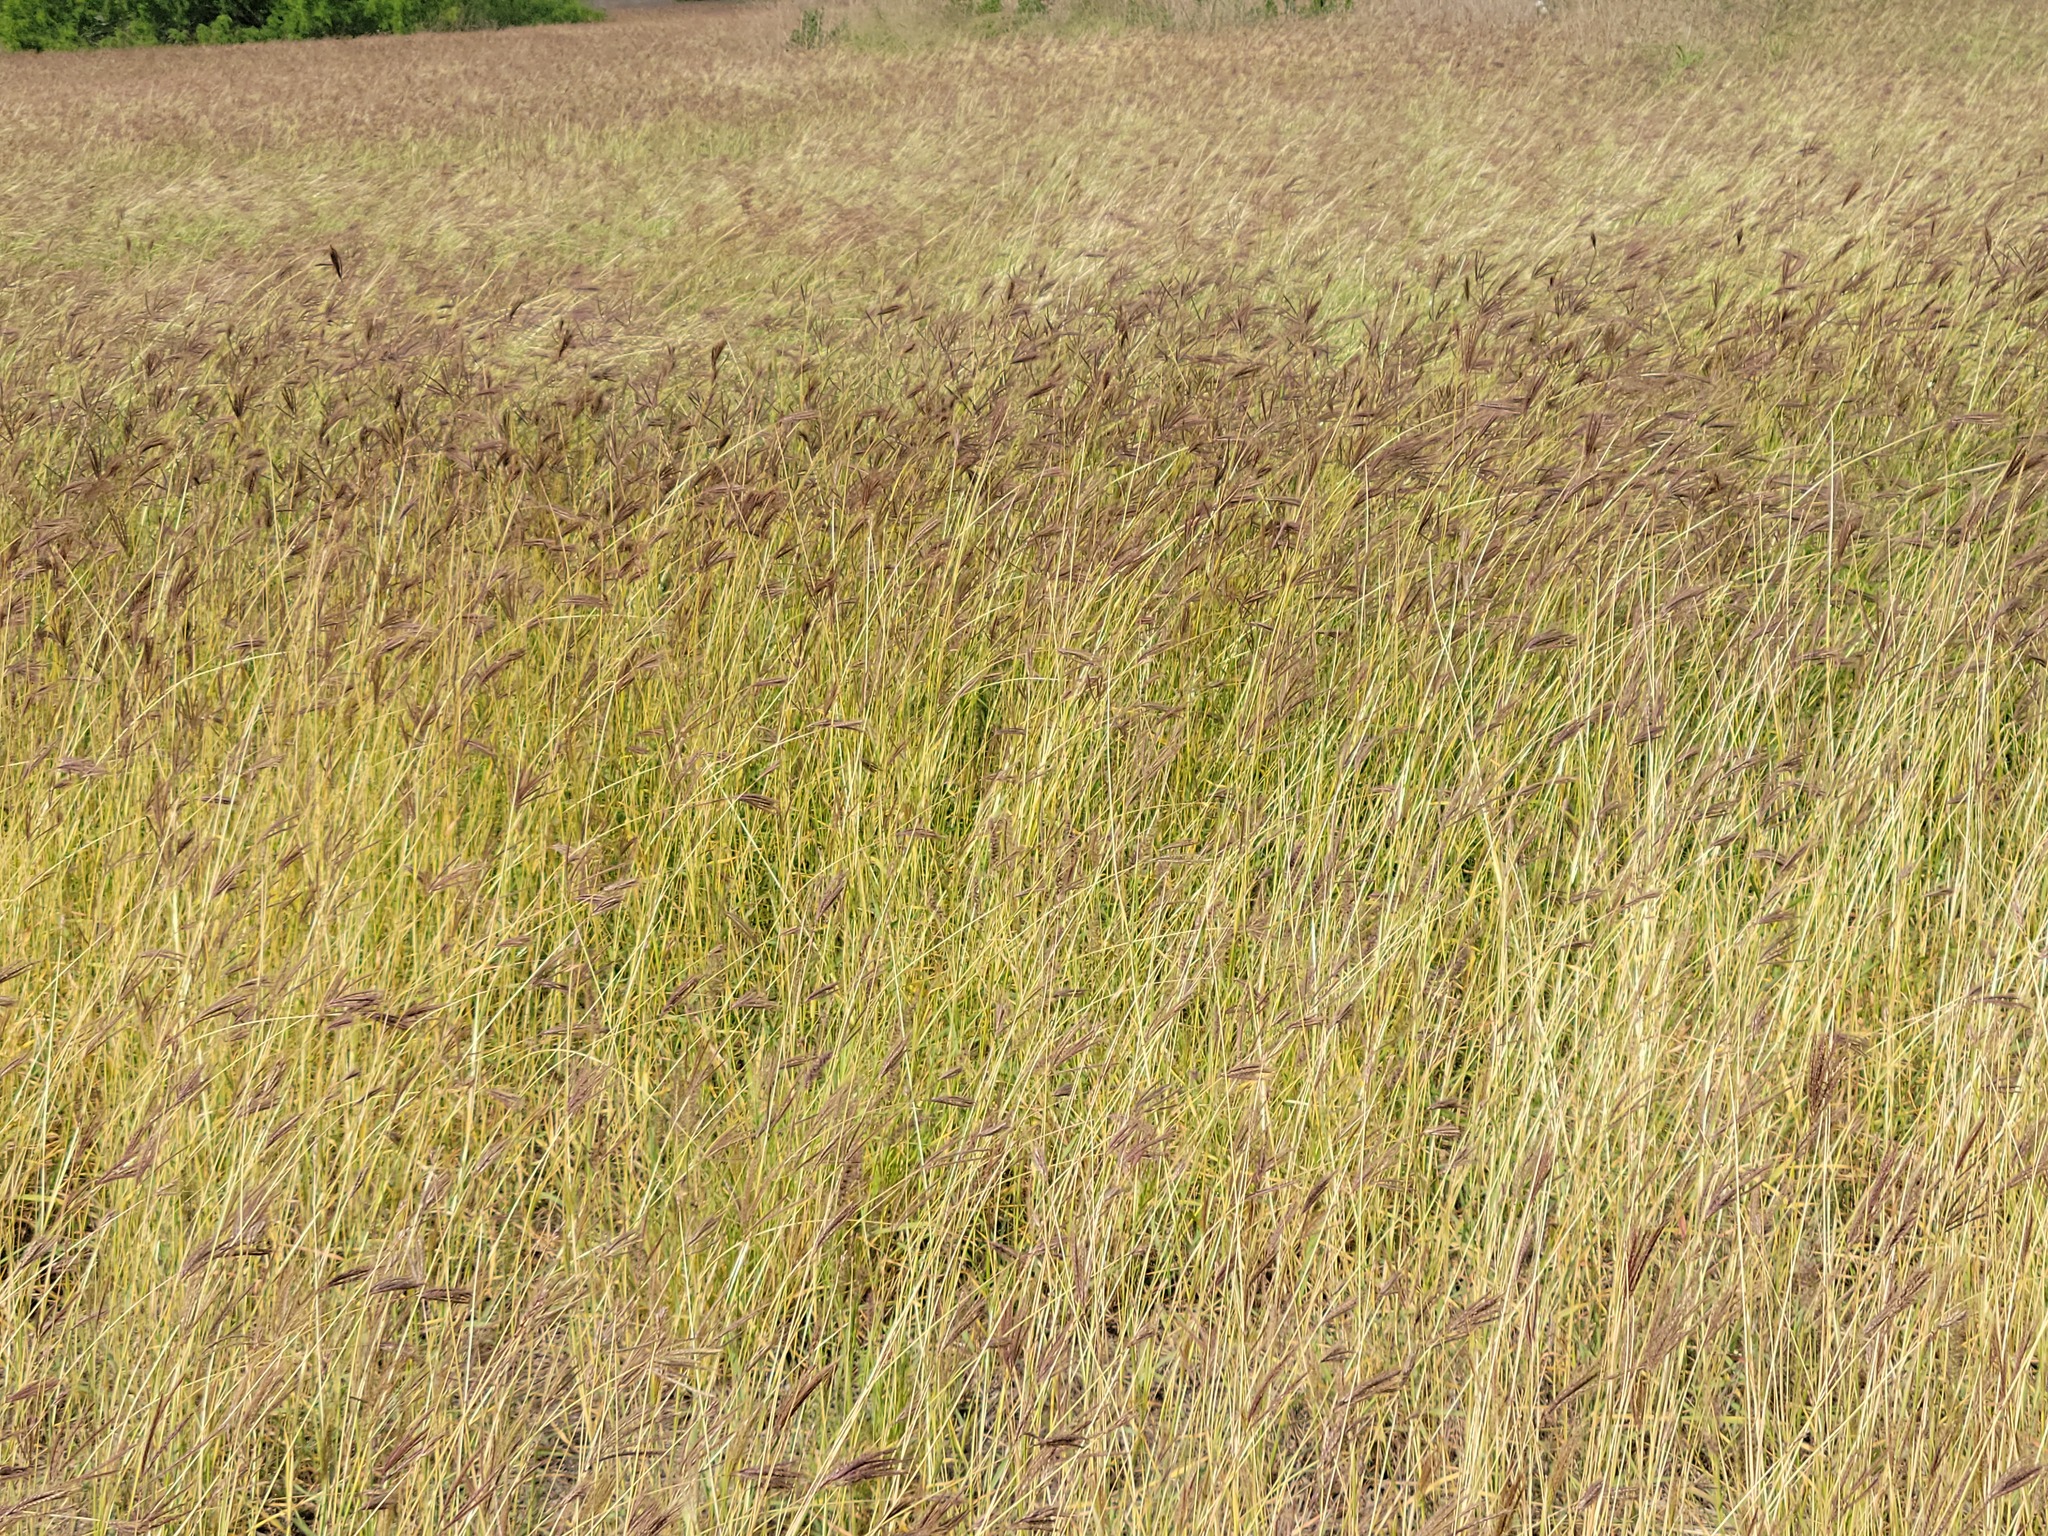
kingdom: Plantae
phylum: Tracheophyta
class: Liliopsida
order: Poales
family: Poaceae
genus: Dichanthium
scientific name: Dichanthium annulatum
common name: Kleberg's bluestem
